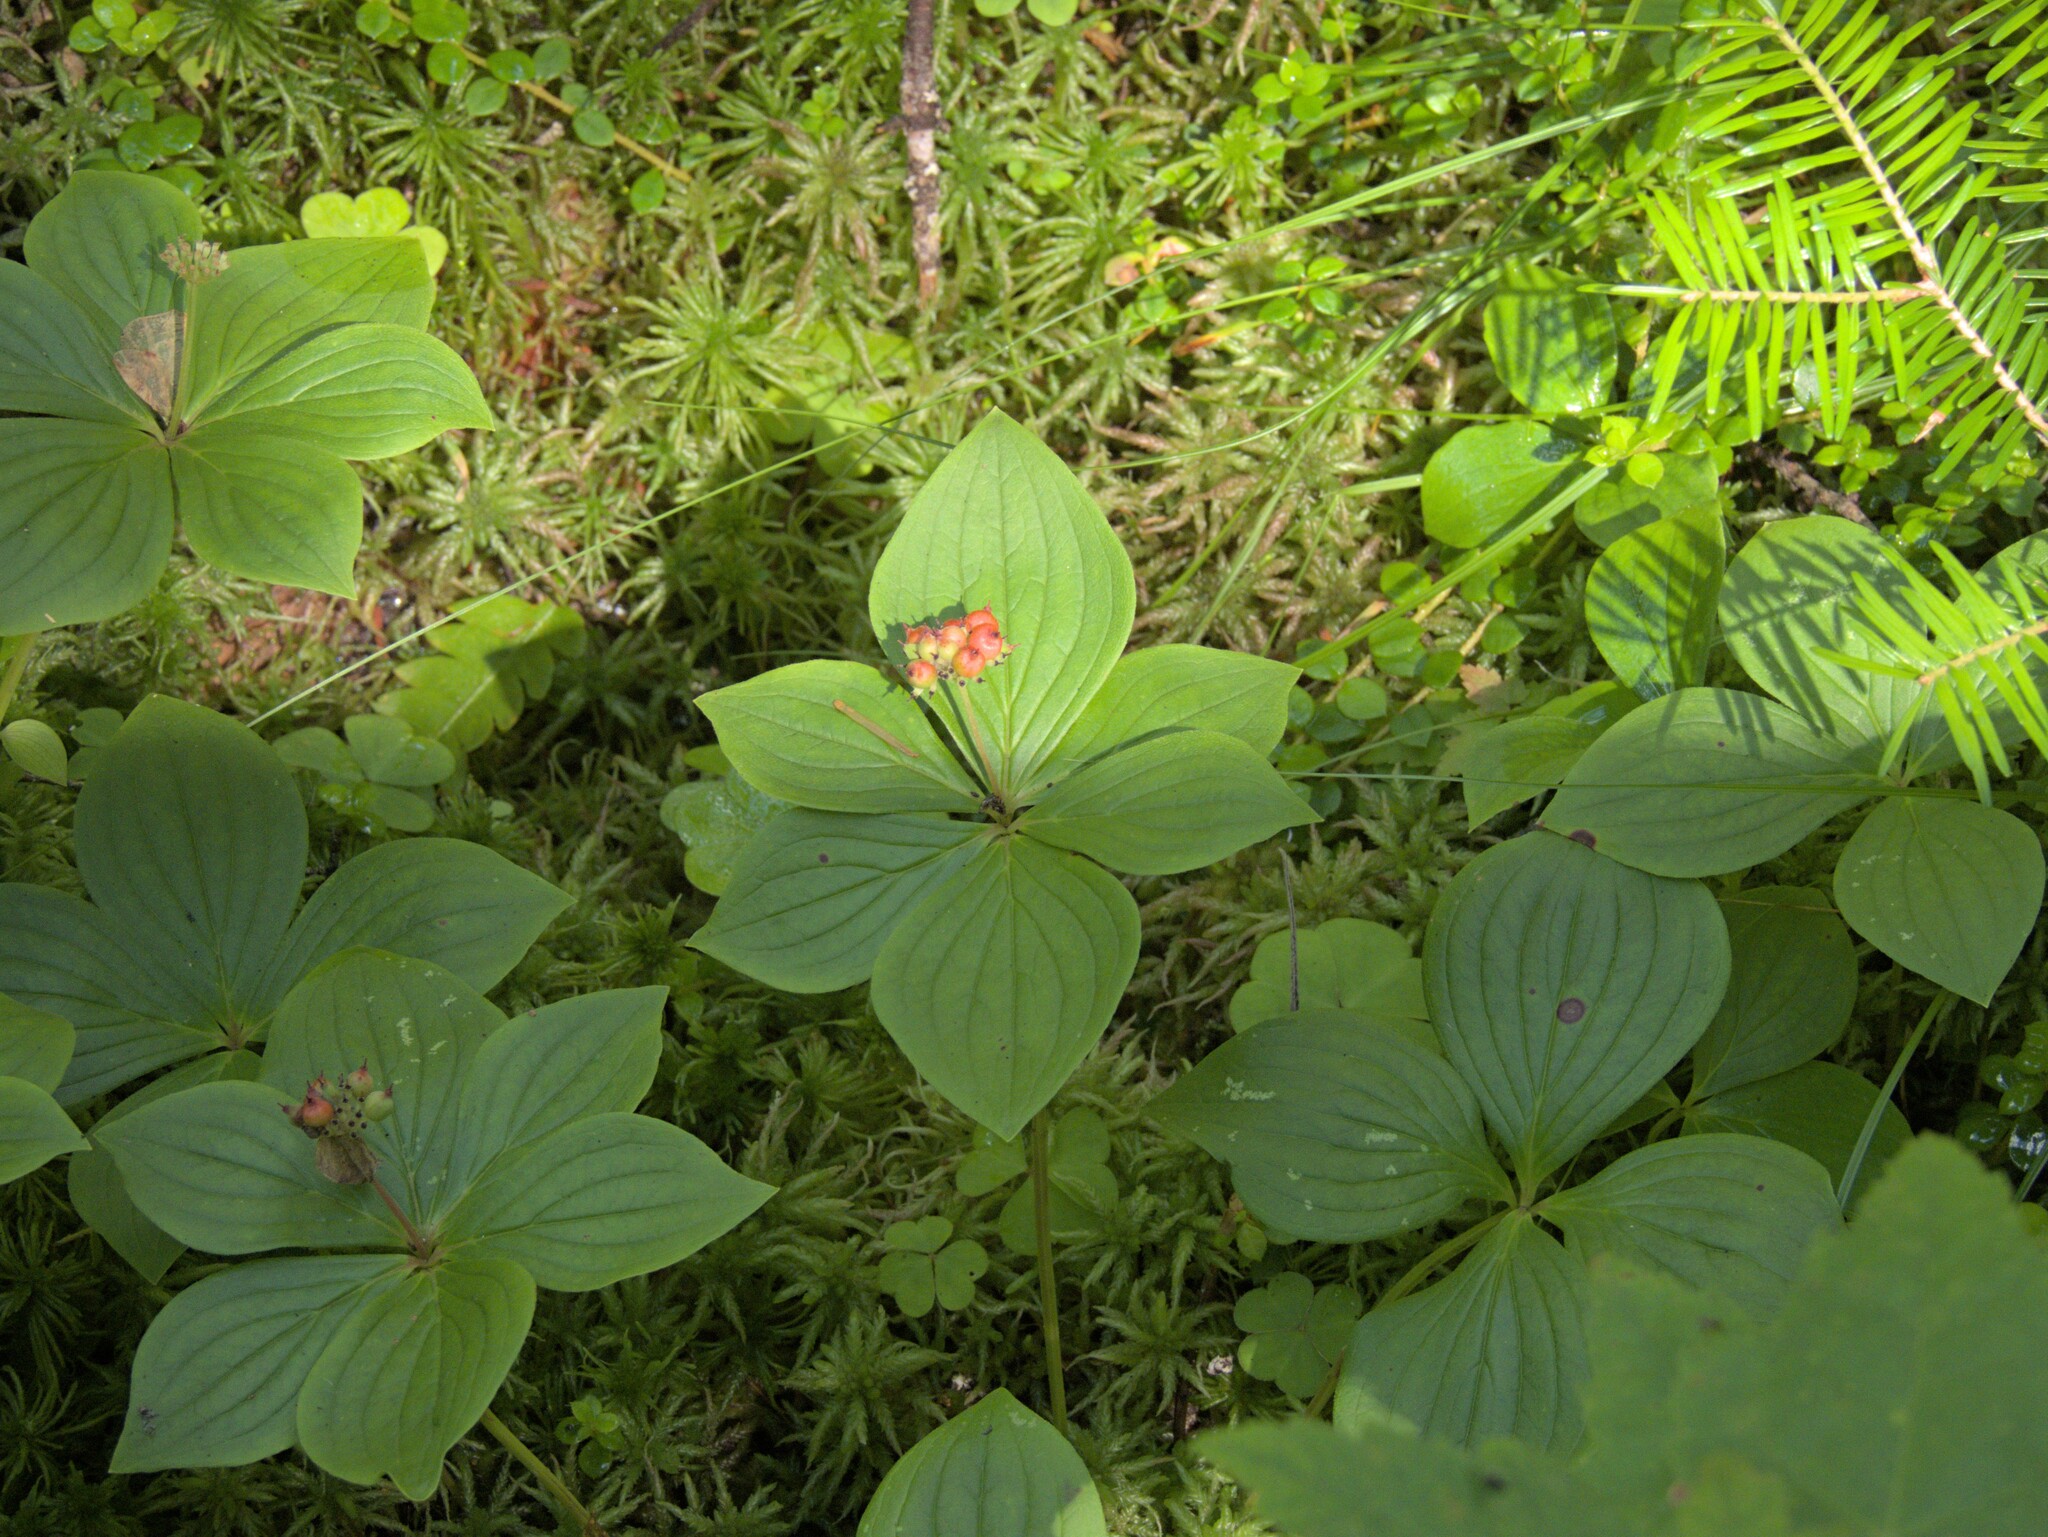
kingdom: Plantae
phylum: Tracheophyta
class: Magnoliopsida
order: Cornales
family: Cornaceae
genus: Cornus
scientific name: Cornus canadensis
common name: Creeping dogwood
